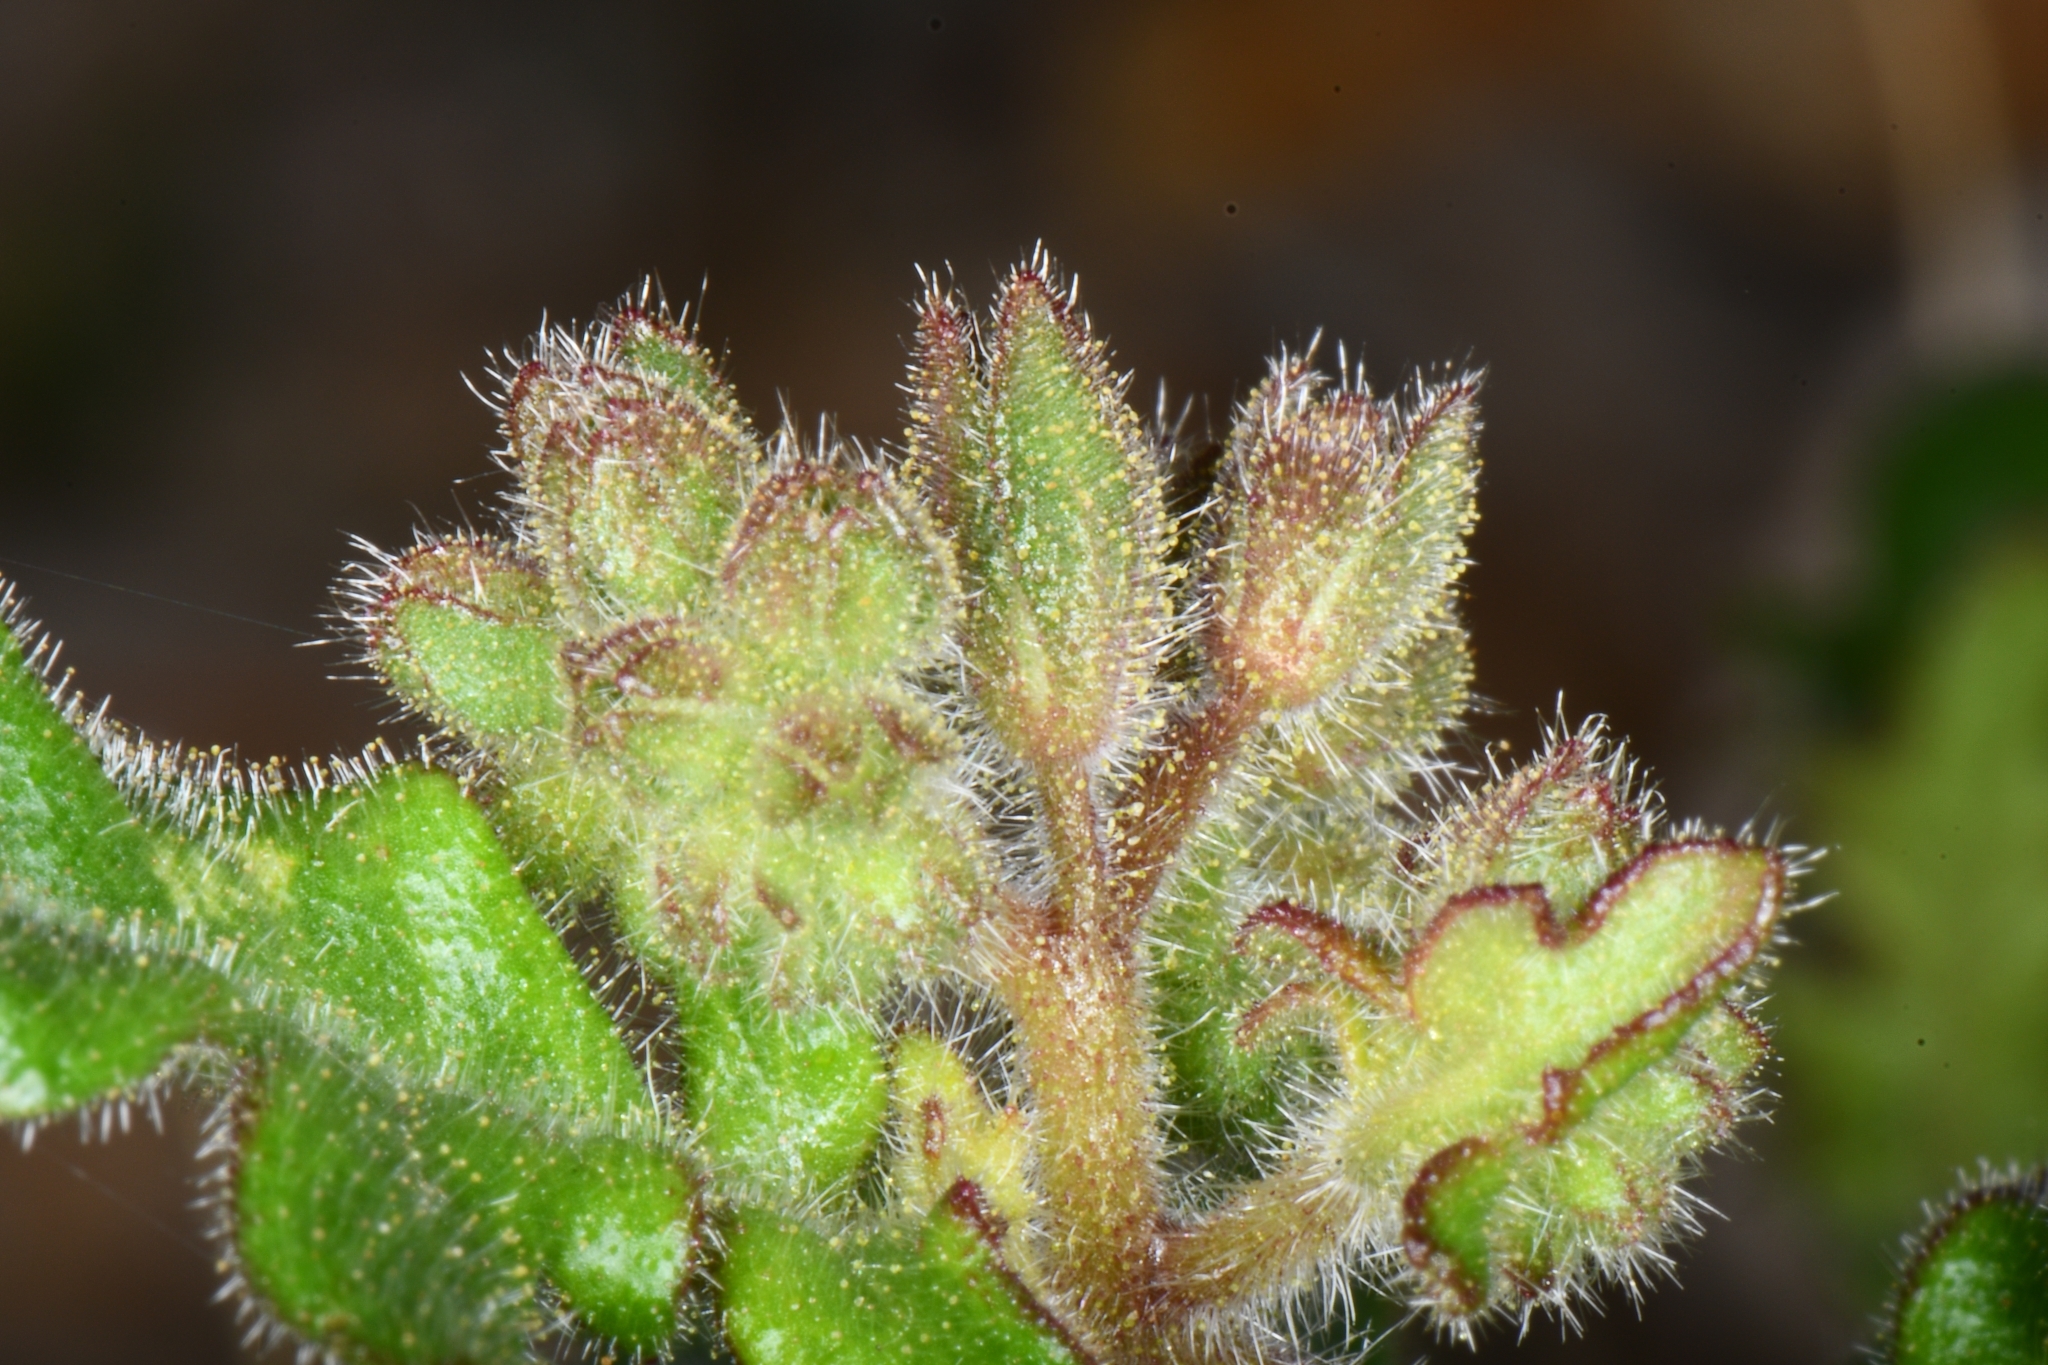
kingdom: Plantae
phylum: Tracheophyta
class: Magnoliopsida
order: Boraginales
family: Hydrophyllaceae
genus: Phacelia
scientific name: Phacelia crenulata
